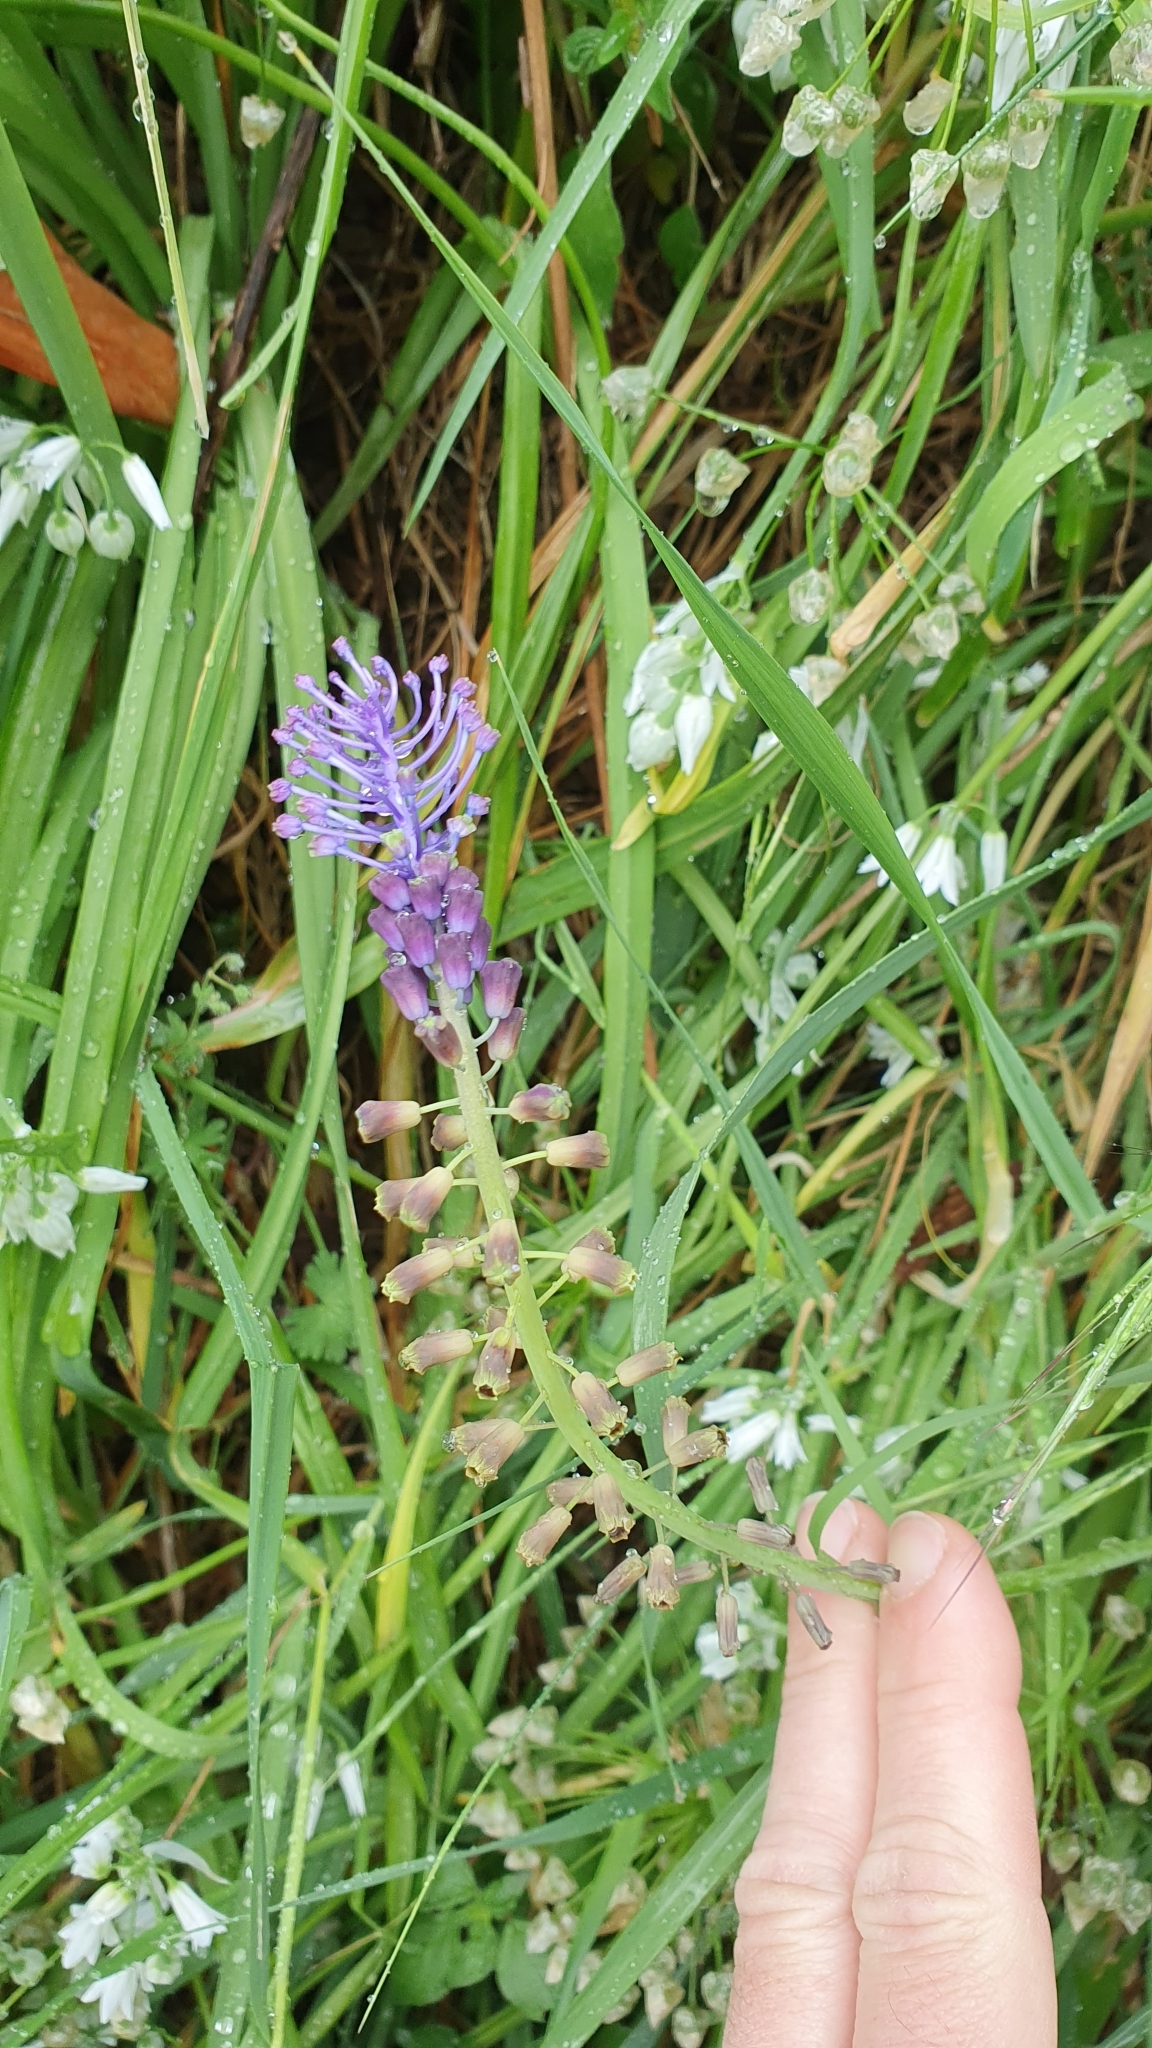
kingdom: Plantae
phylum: Tracheophyta
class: Liliopsida
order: Asparagales
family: Asparagaceae
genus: Muscari
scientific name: Muscari comosum
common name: Tassel hyacinth
